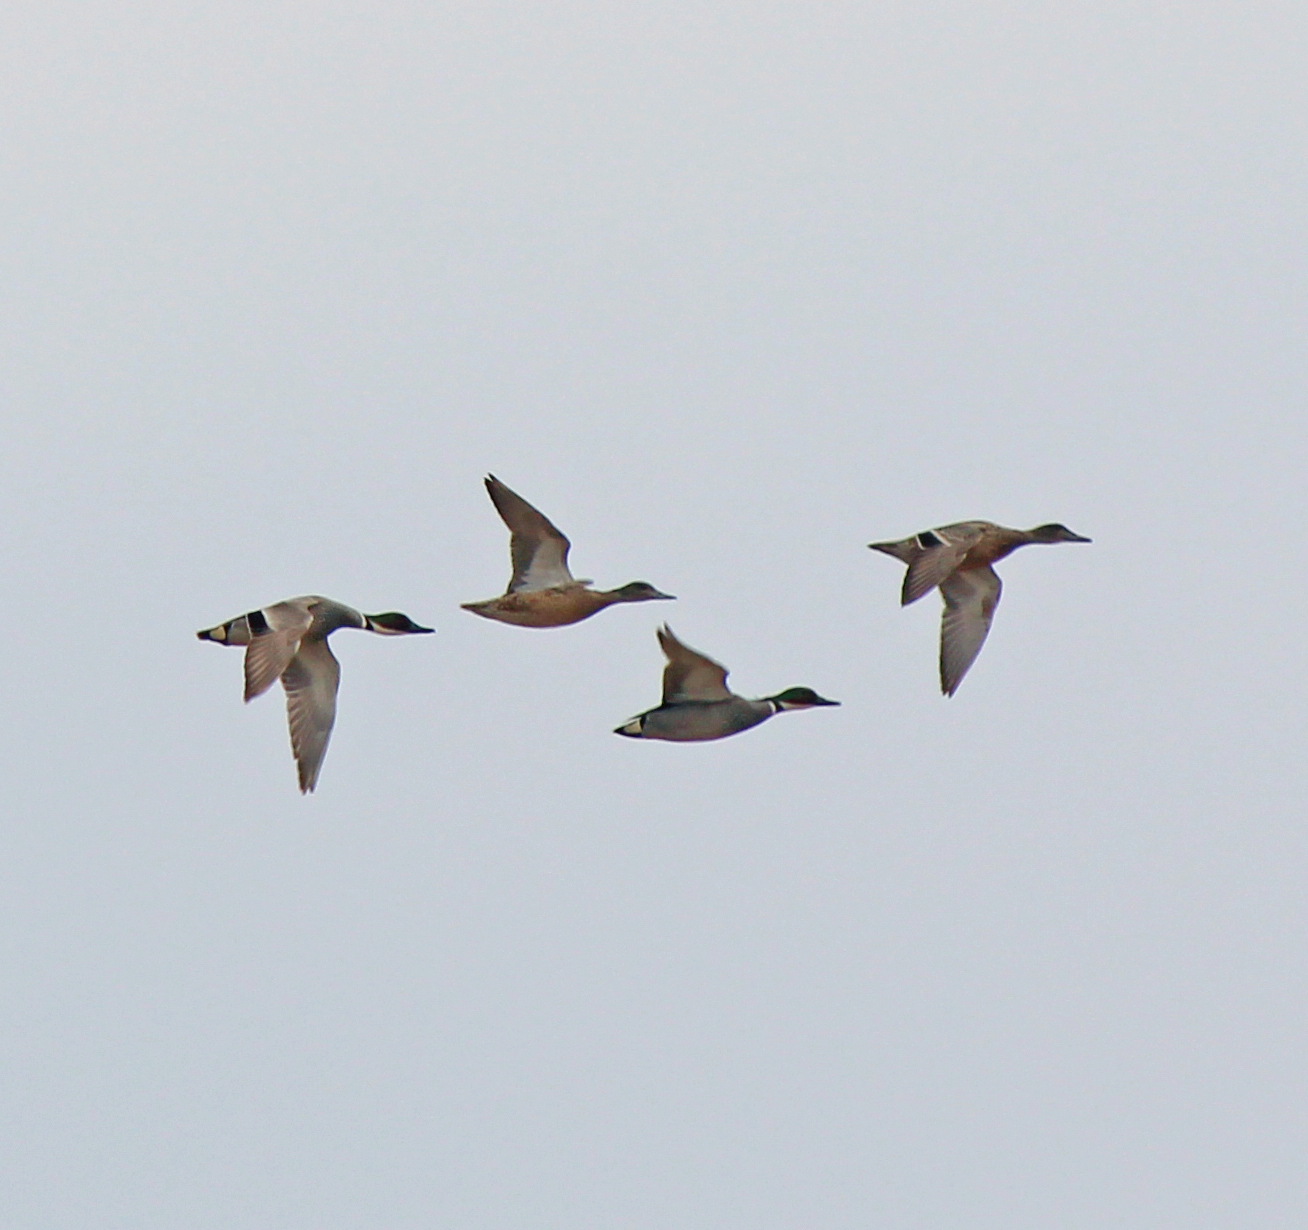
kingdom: Animalia
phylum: Chordata
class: Aves
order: Anseriformes
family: Anatidae
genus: Mareca
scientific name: Mareca falcata
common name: Falcated duck
